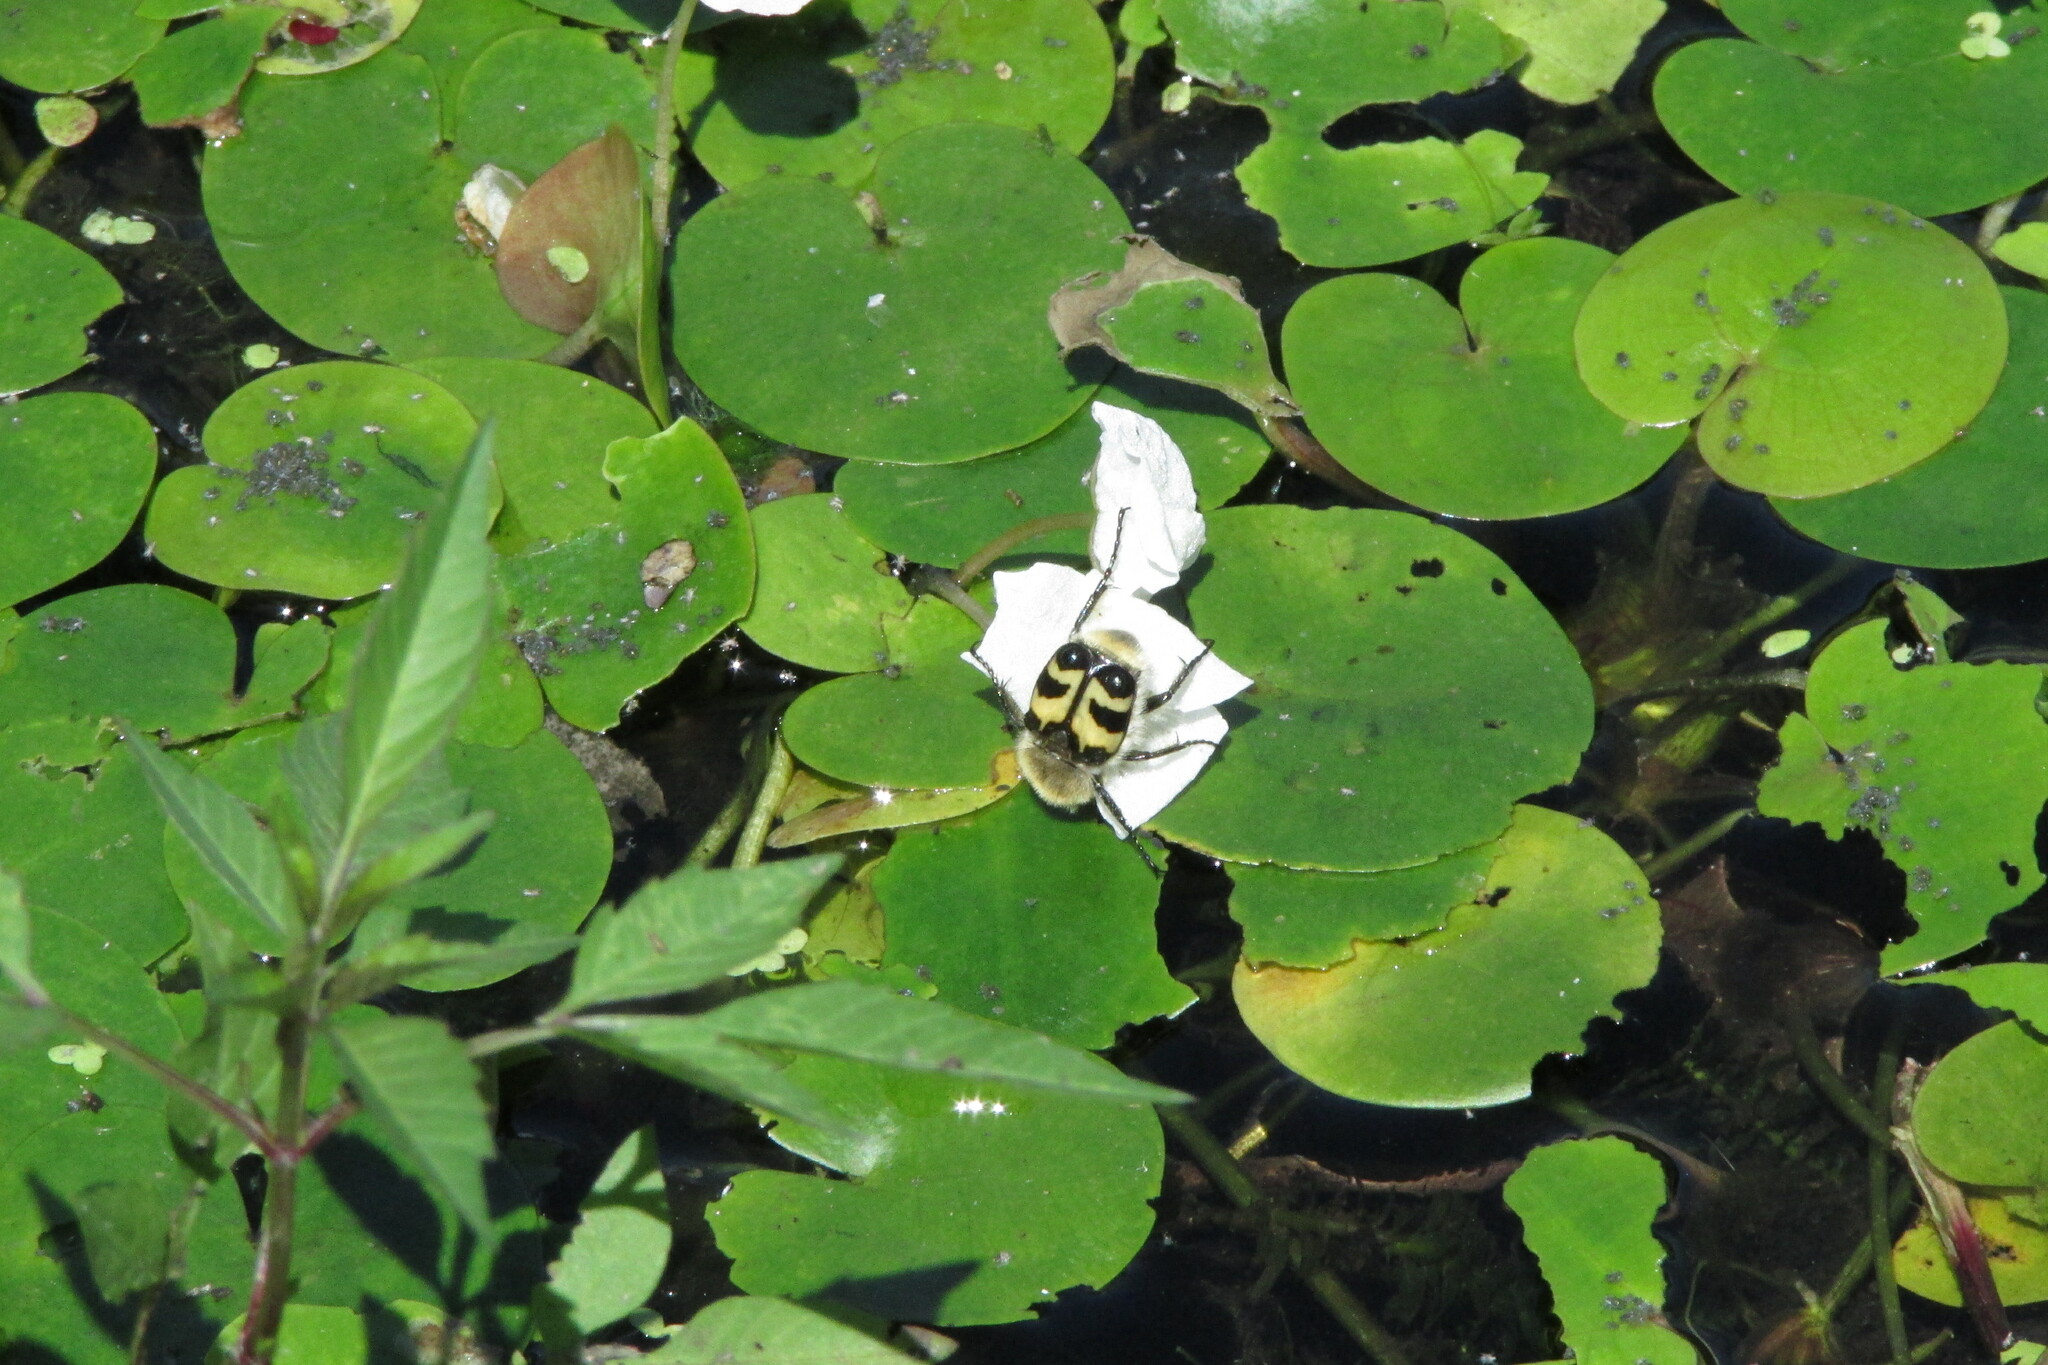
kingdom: Animalia
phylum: Arthropoda
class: Insecta
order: Coleoptera
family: Scarabaeidae
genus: Trichius
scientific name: Trichius fasciatus
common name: Bee beetle
